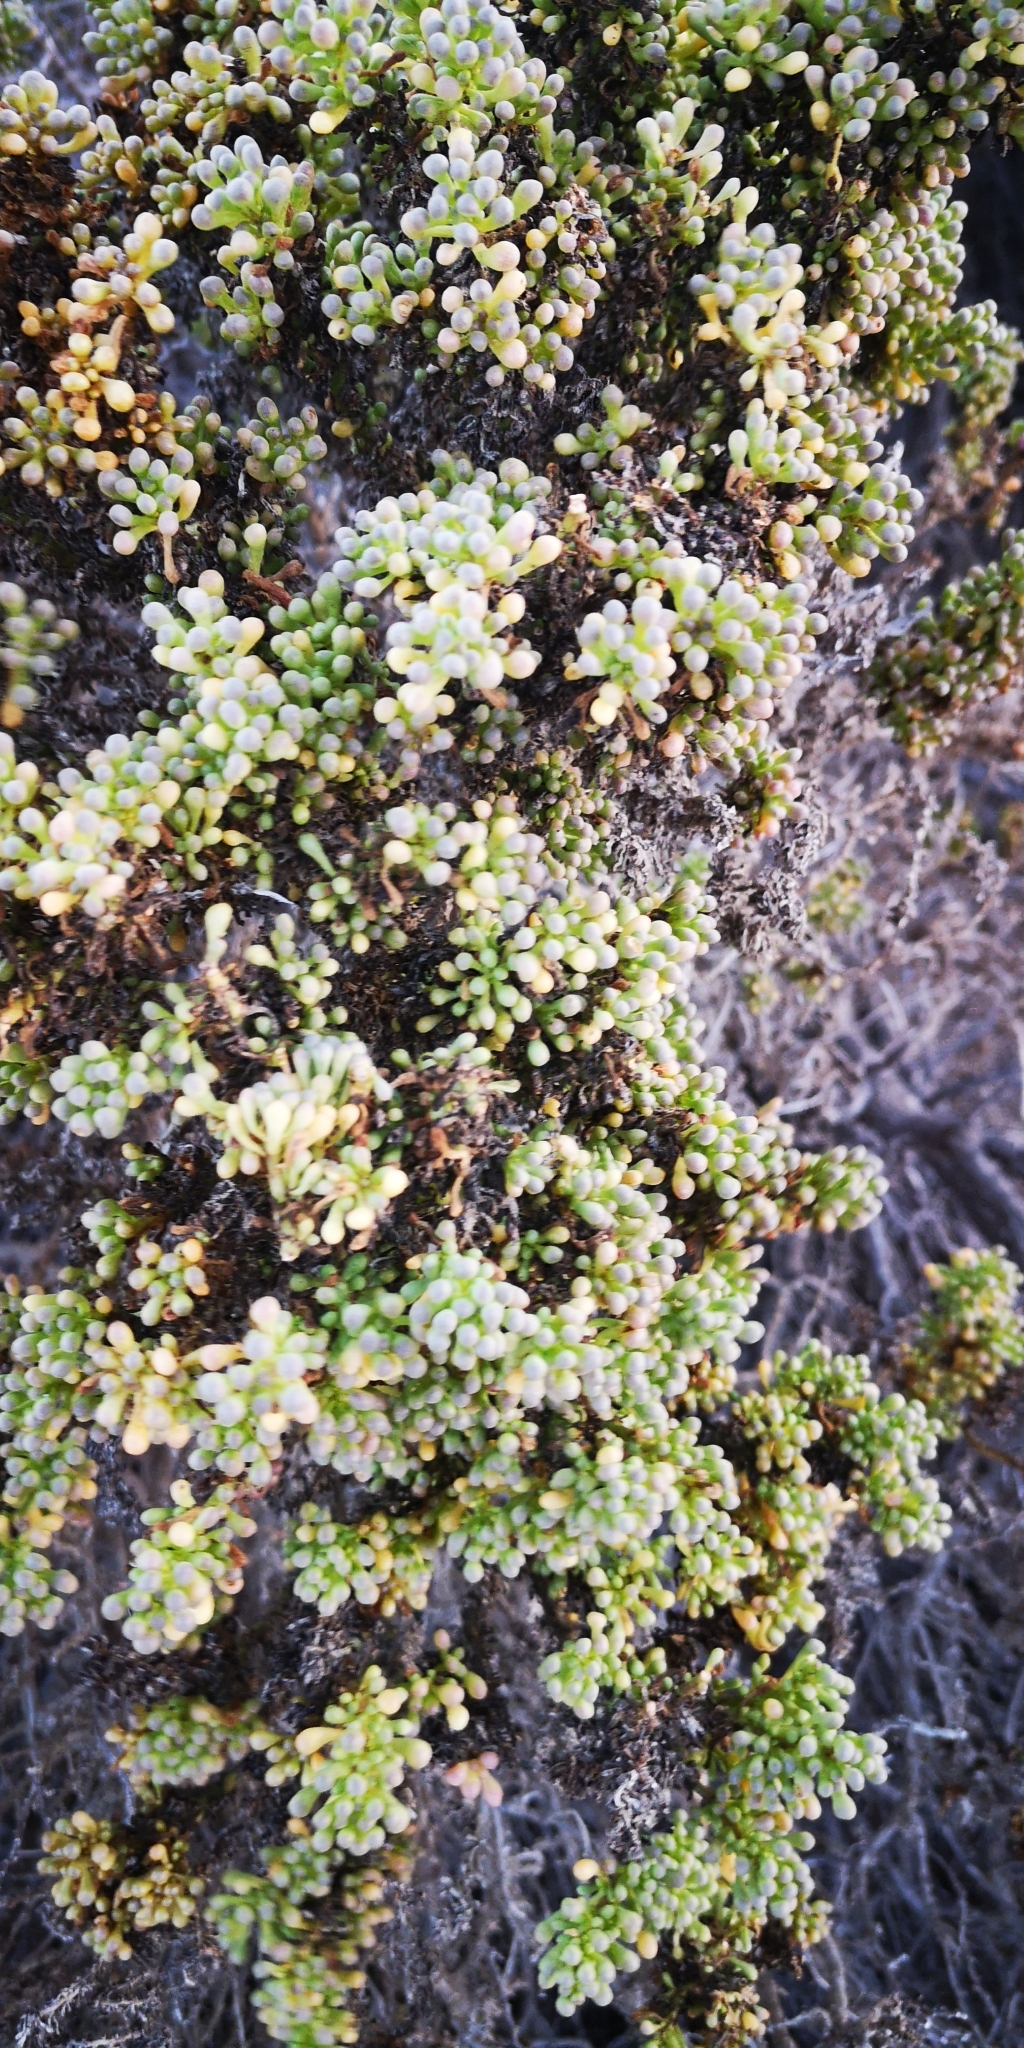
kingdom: Plantae
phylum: Tracheophyta
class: Magnoliopsida
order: Solanales
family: Solanaceae
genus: Nolana
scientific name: Nolana divaricata
